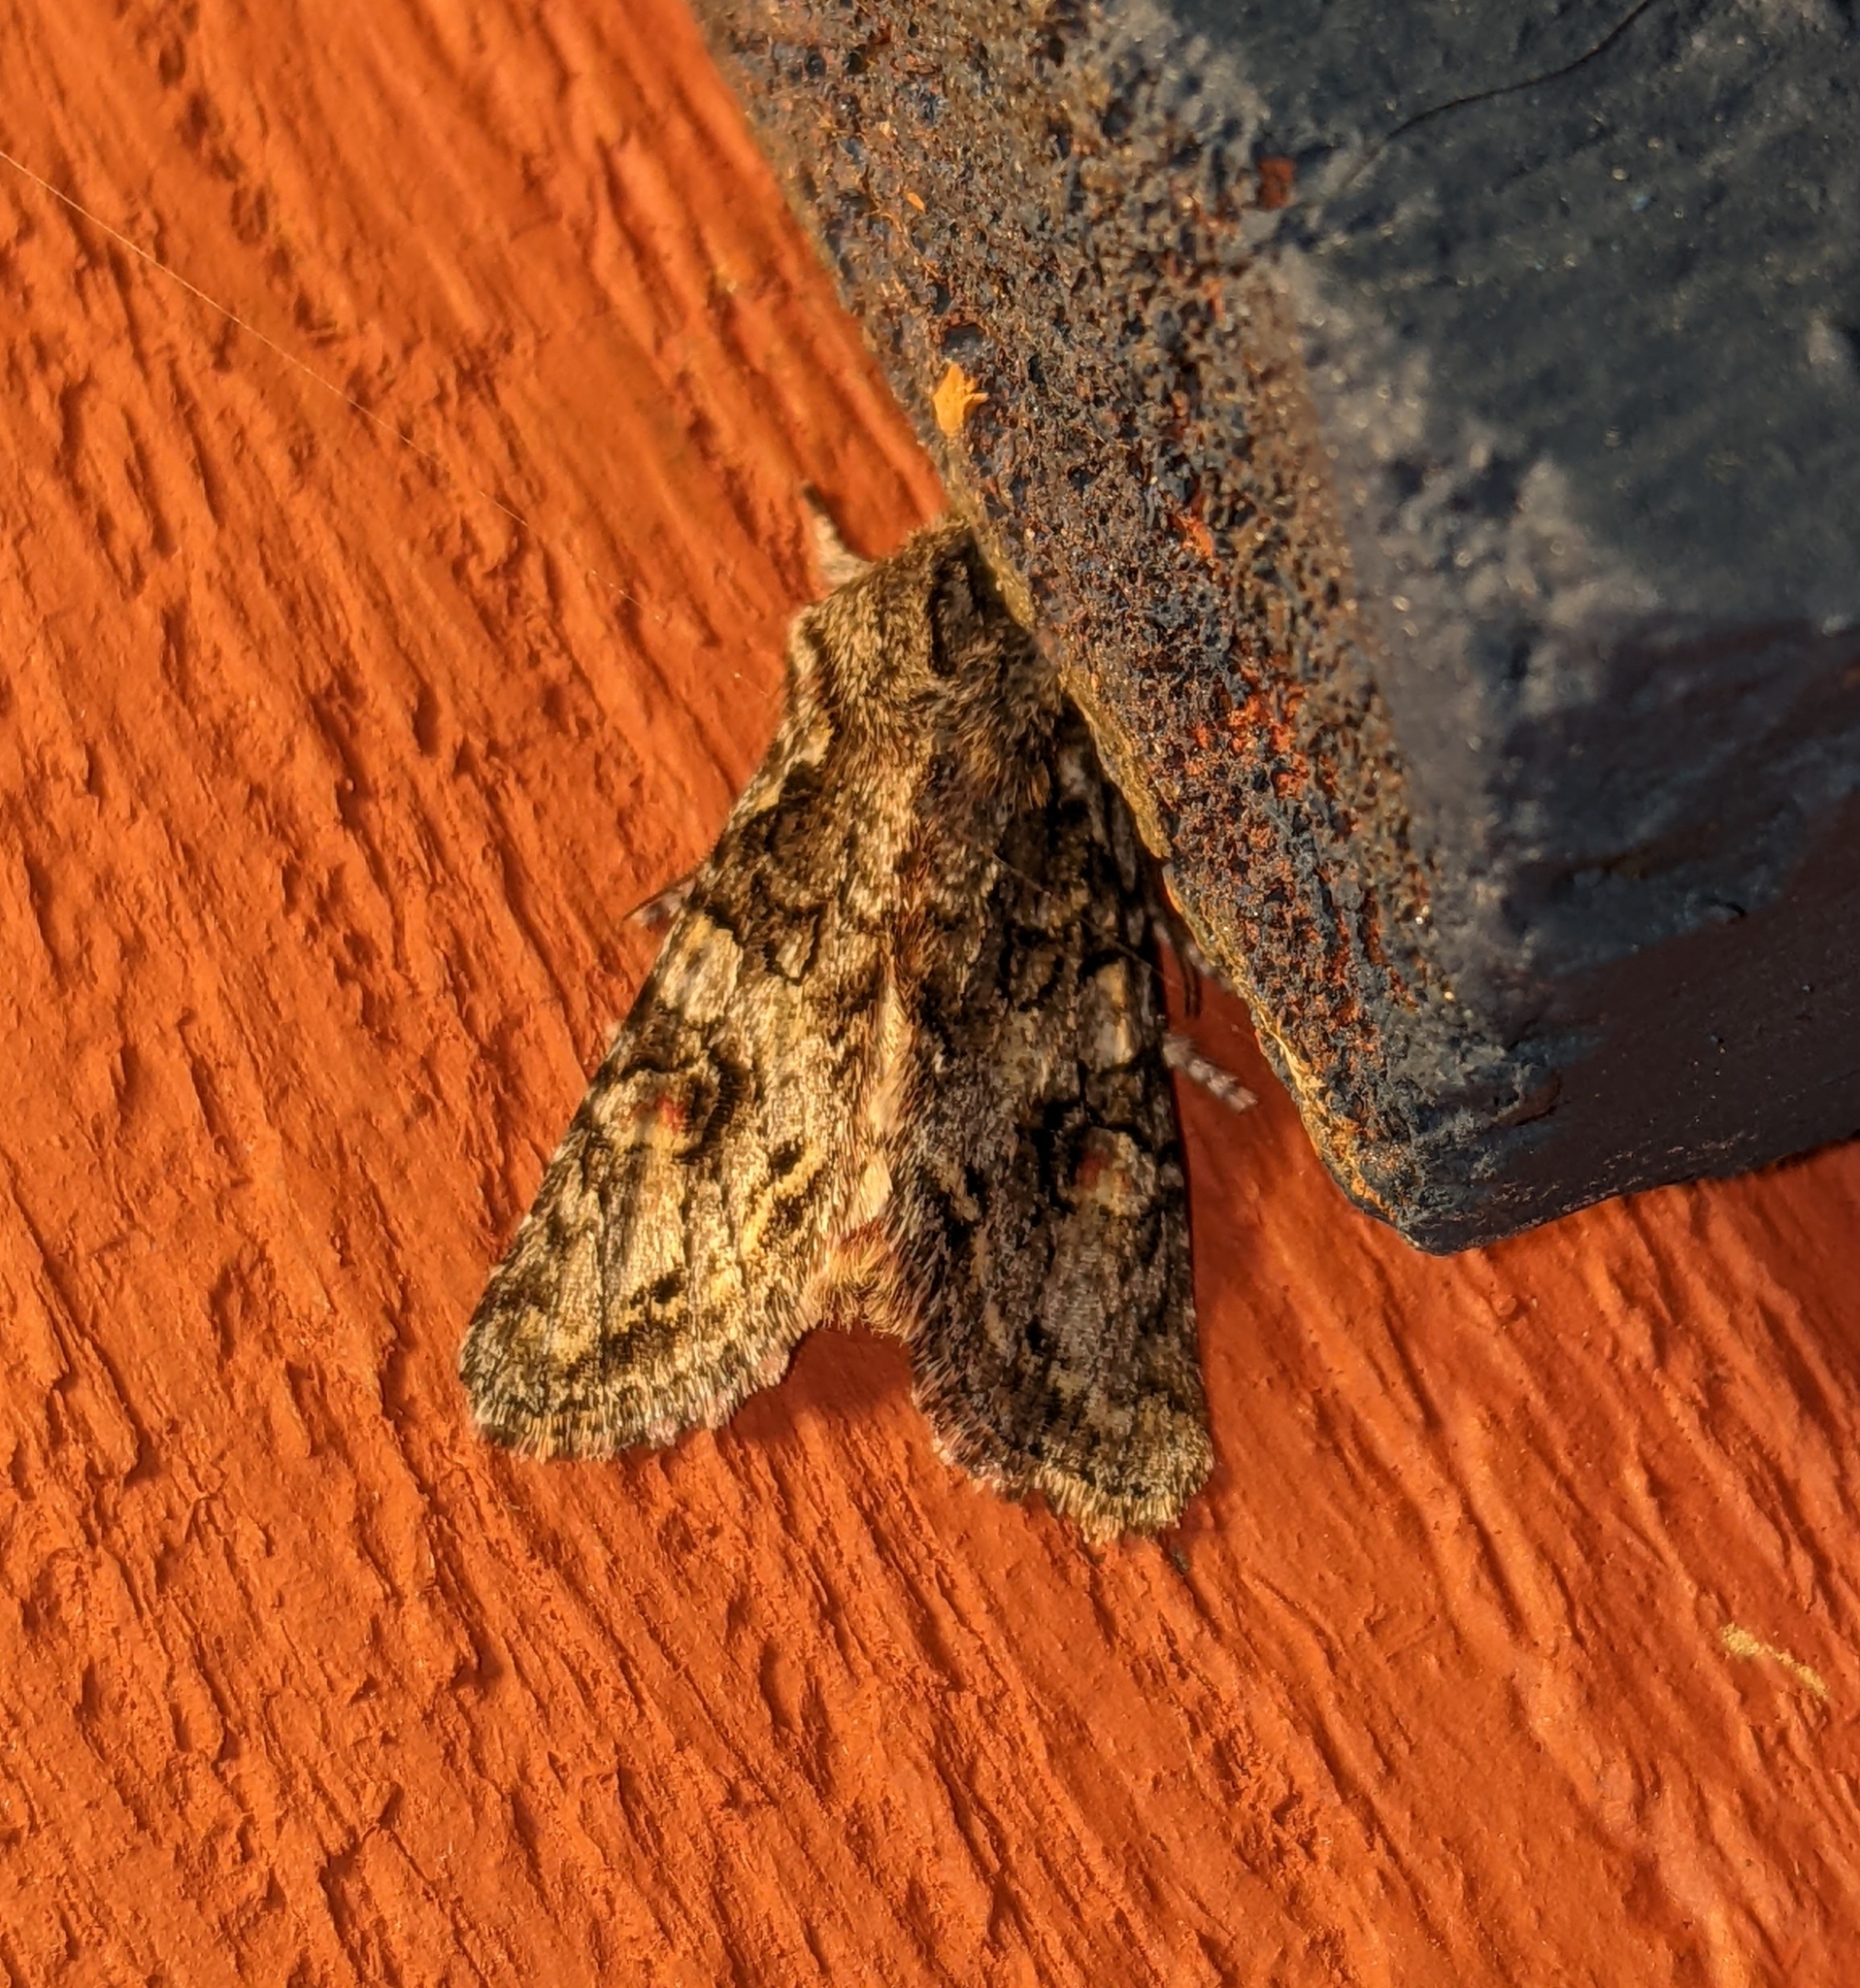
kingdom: Animalia
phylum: Arthropoda
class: Insecta
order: Lepidoptera
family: Noctuidae
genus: Egira
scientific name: Egira hiemalis
